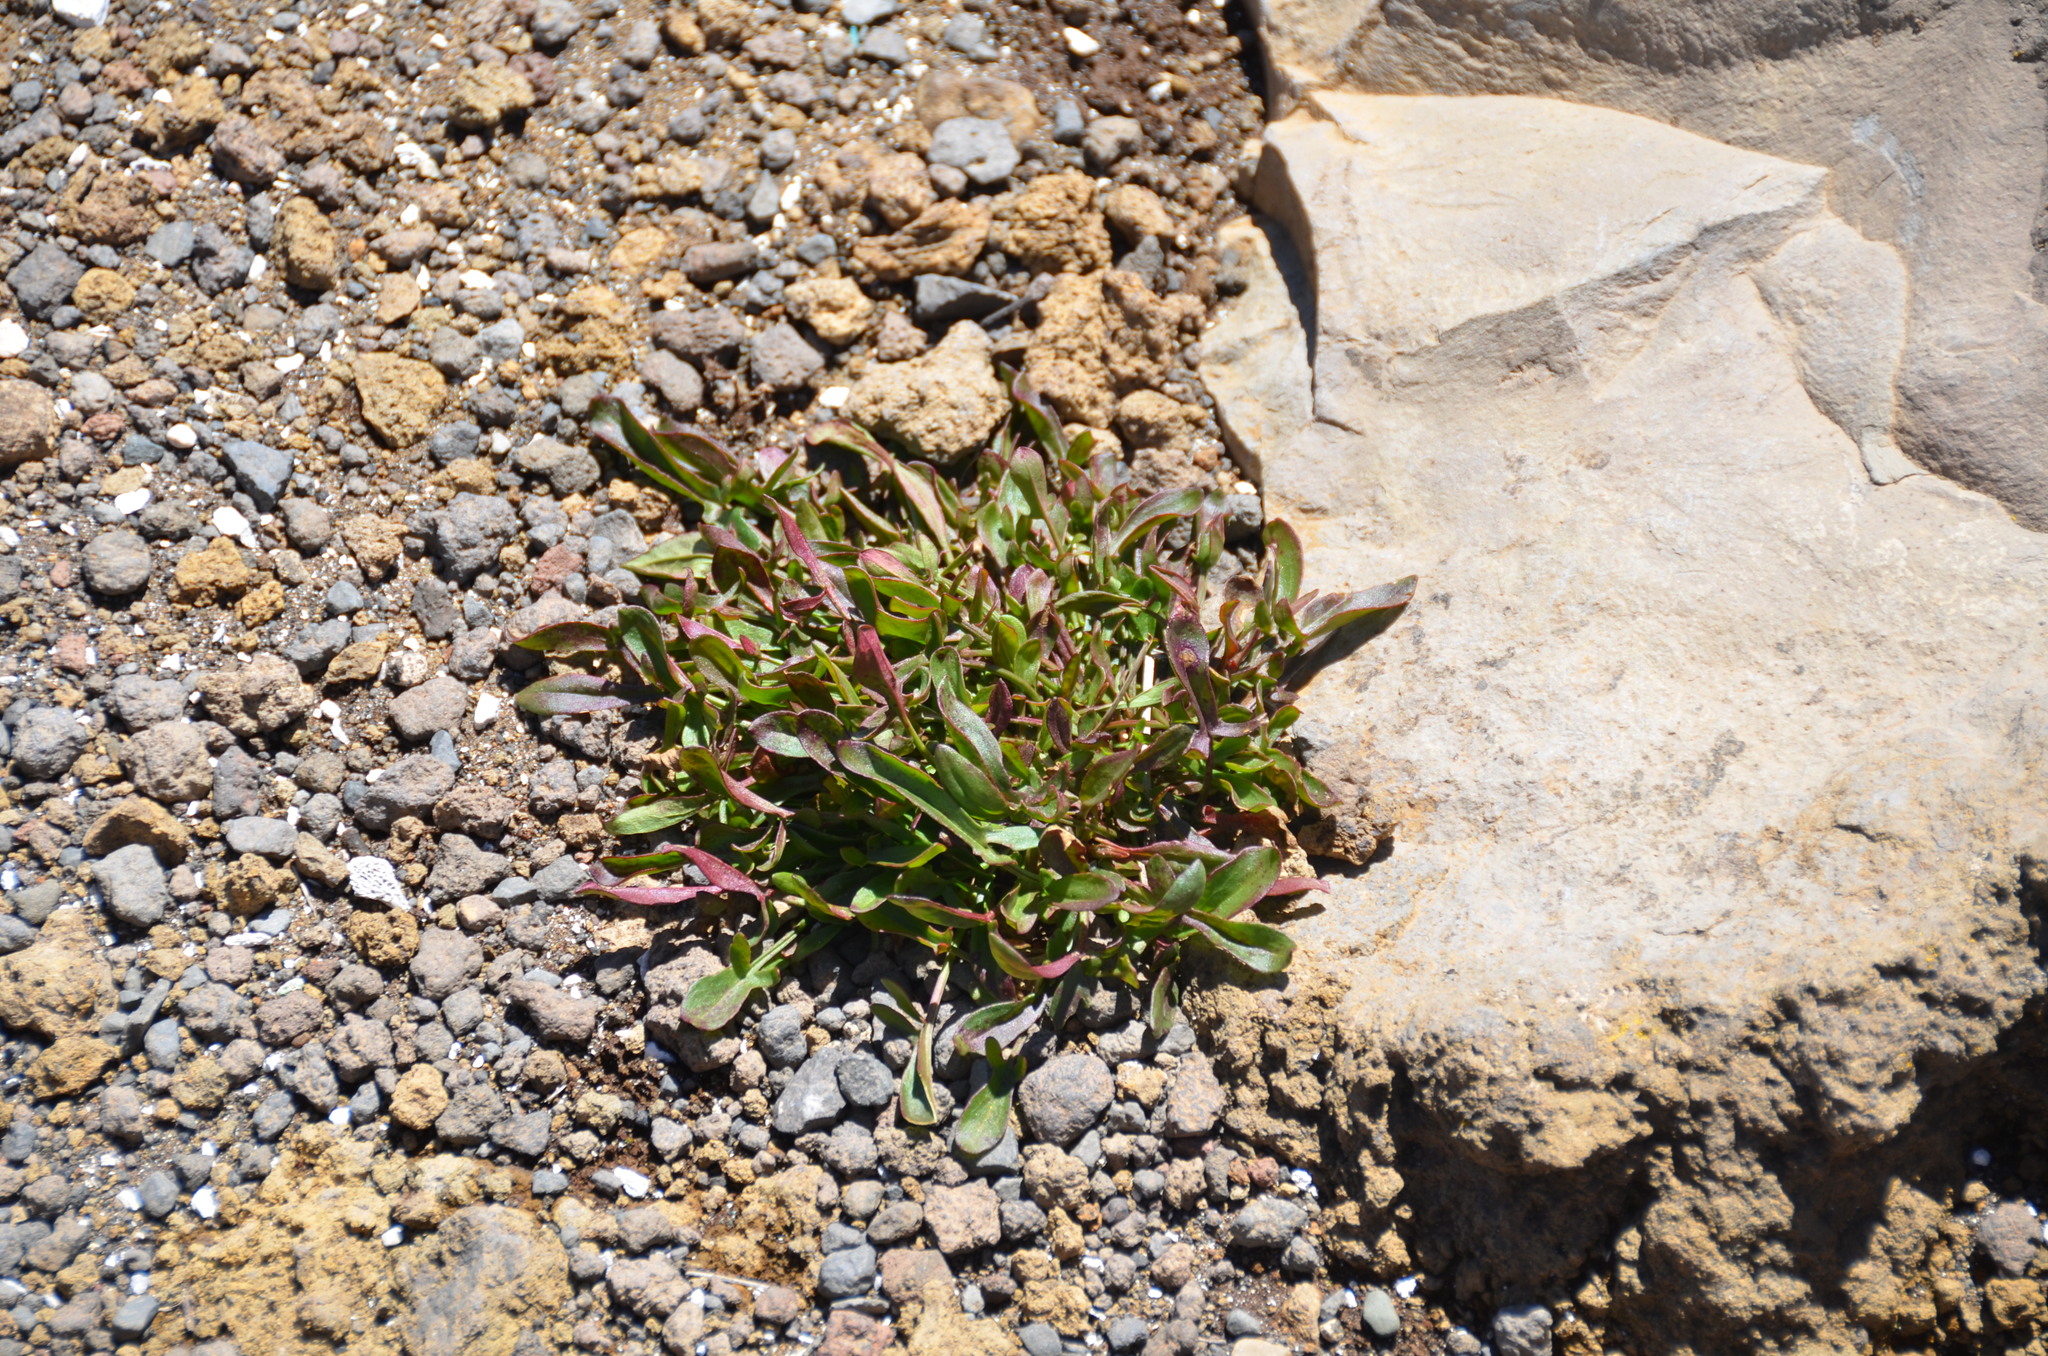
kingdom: Plantae
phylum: Tracheophyta
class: Magnoliopsida
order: Caryophyllales
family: Polygonaceae
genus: Rumex
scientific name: Rumex acetosella
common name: Common sheep sorrel
